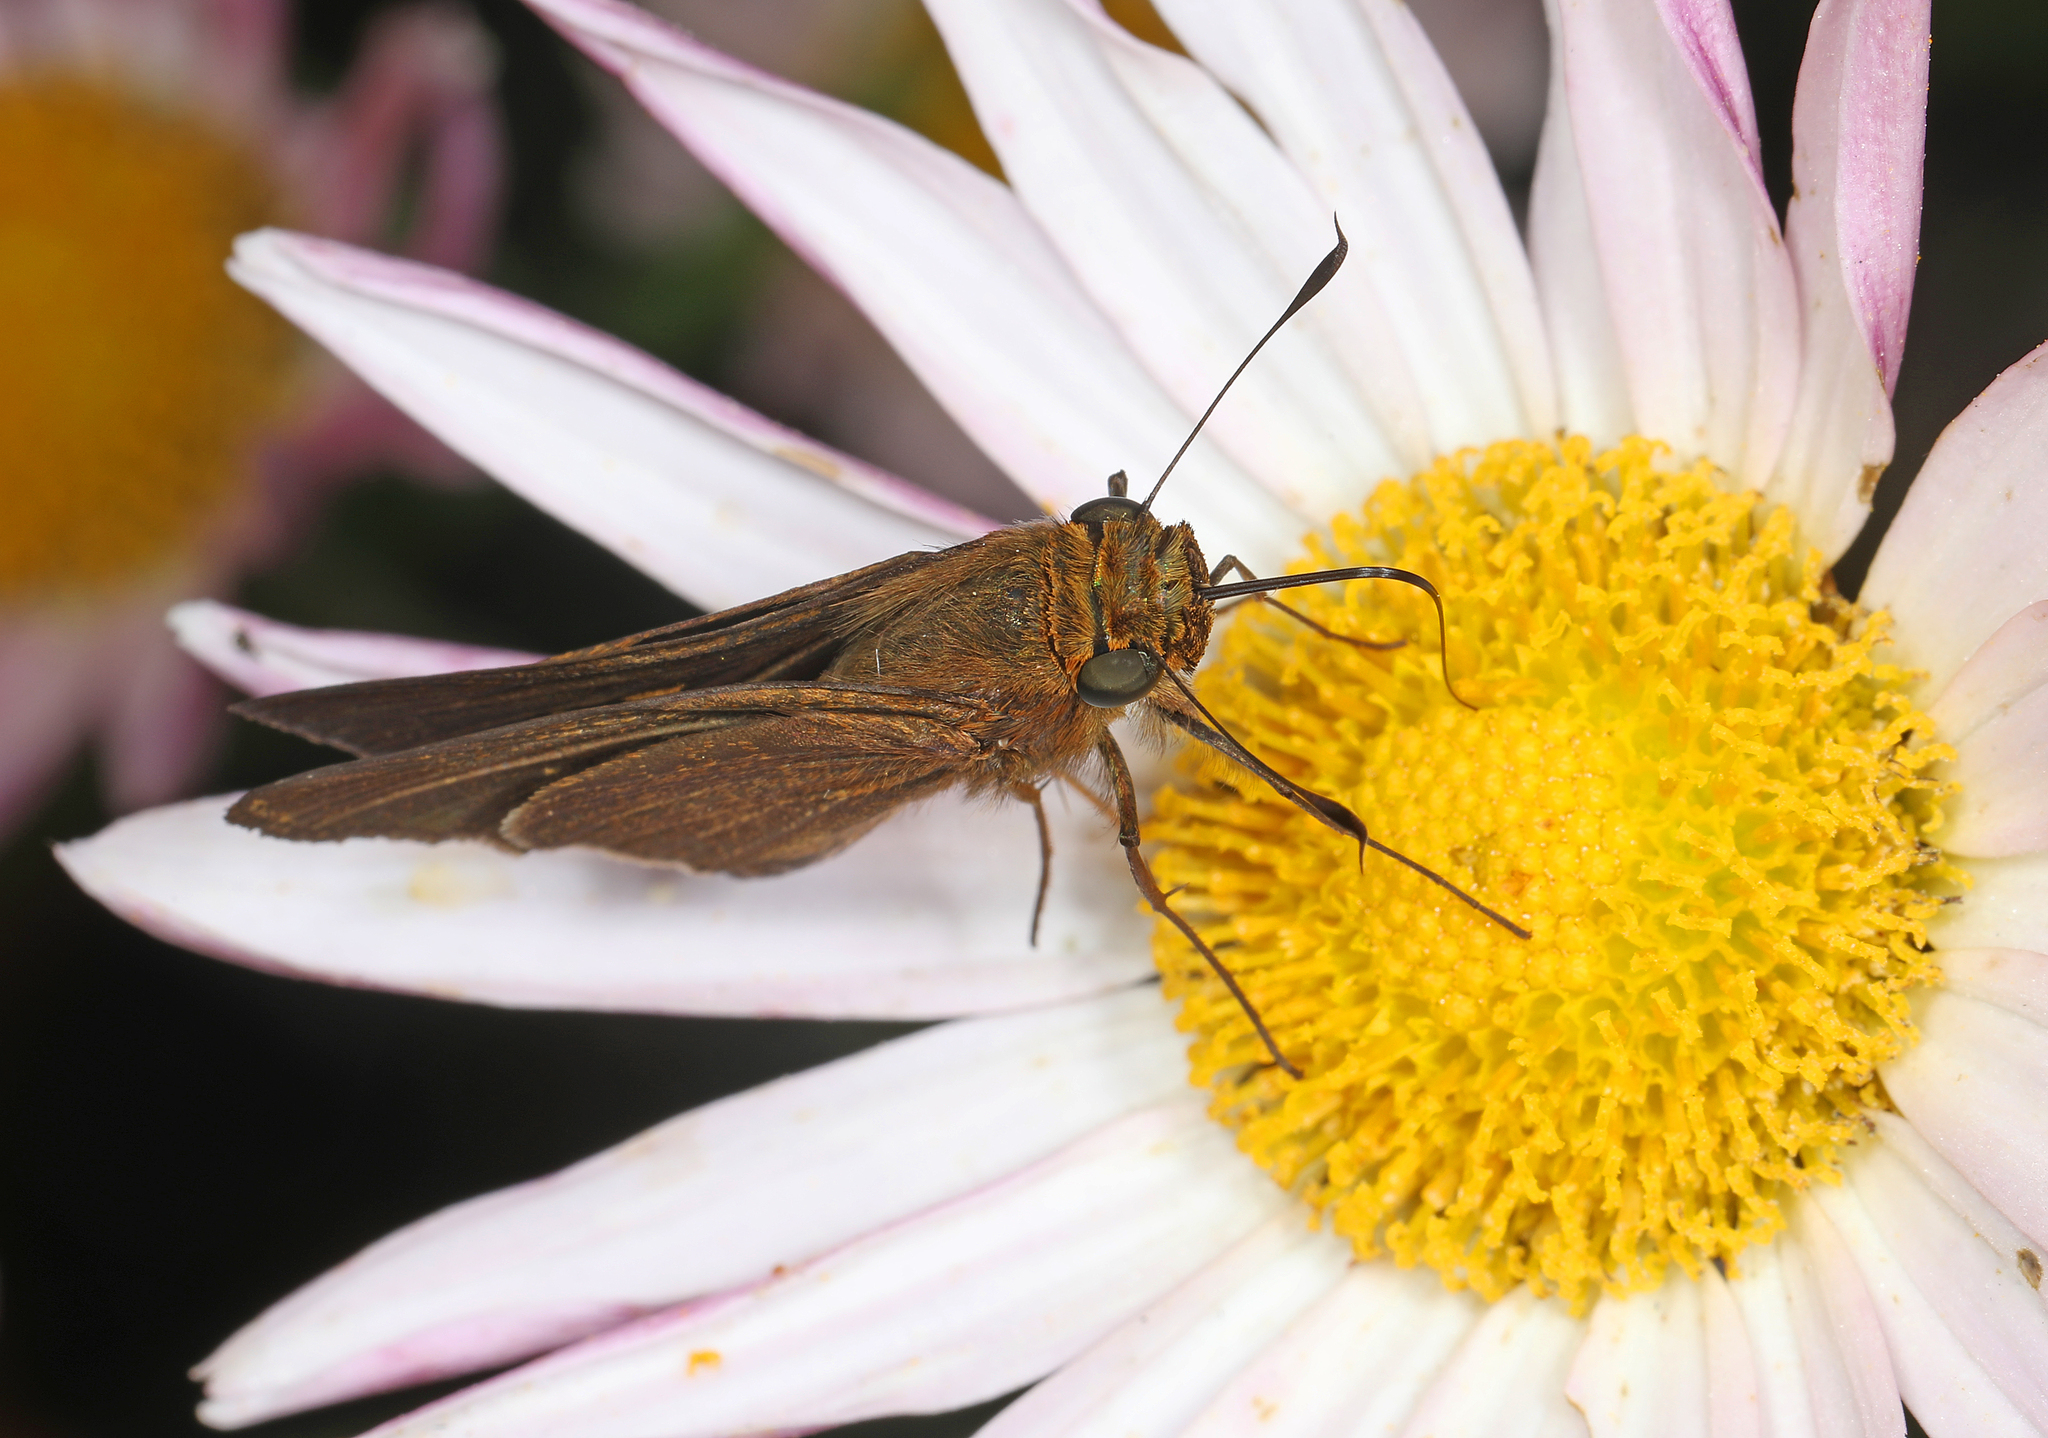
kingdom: Animalia
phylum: Arthropoda
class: Insecta
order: Lepidoptera
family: Hesperiidae
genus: Panoquina
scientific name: Panoquina ocola
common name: Ocola skipper
